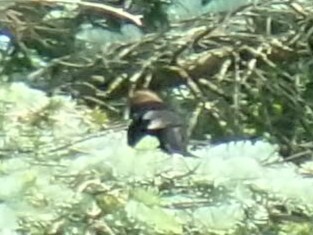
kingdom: Animalia
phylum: Chordata
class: Aves
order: Passeriformes
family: Icteridae
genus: Molothrus
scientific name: Molothrus ater
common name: Brown-headed cowbird
